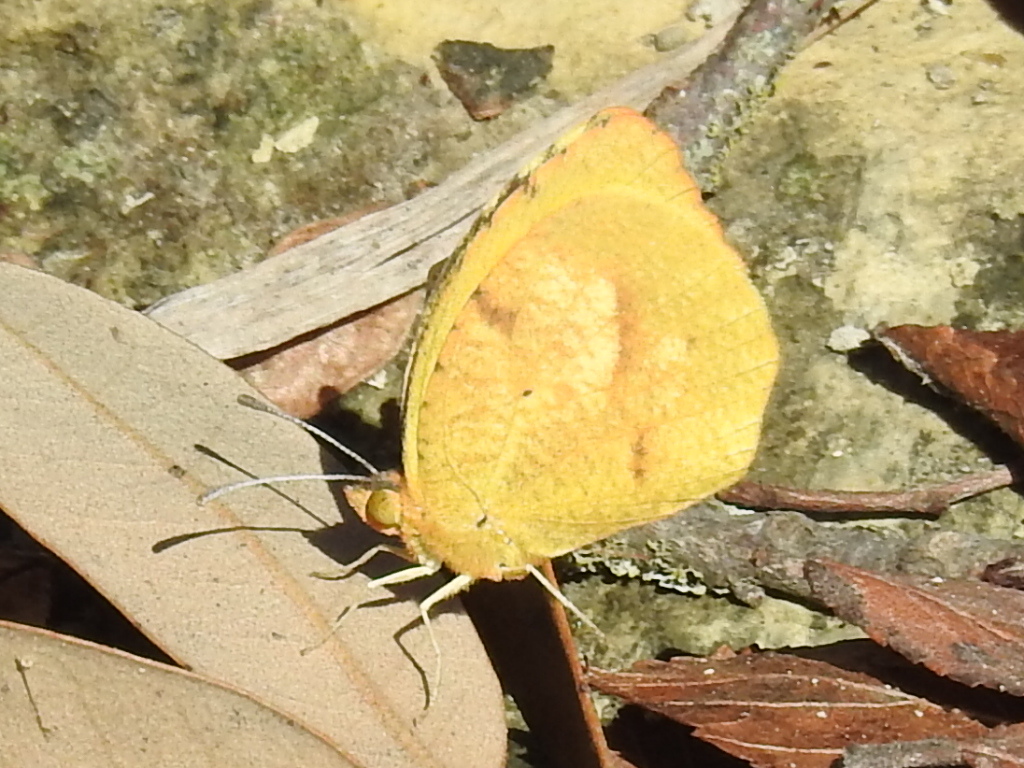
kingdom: Animalia
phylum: Arthropoda
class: Insecta
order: Lepidoptera
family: Pieridae
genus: Abaeis
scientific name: Abaeis nicippe
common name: Sleepy orange
